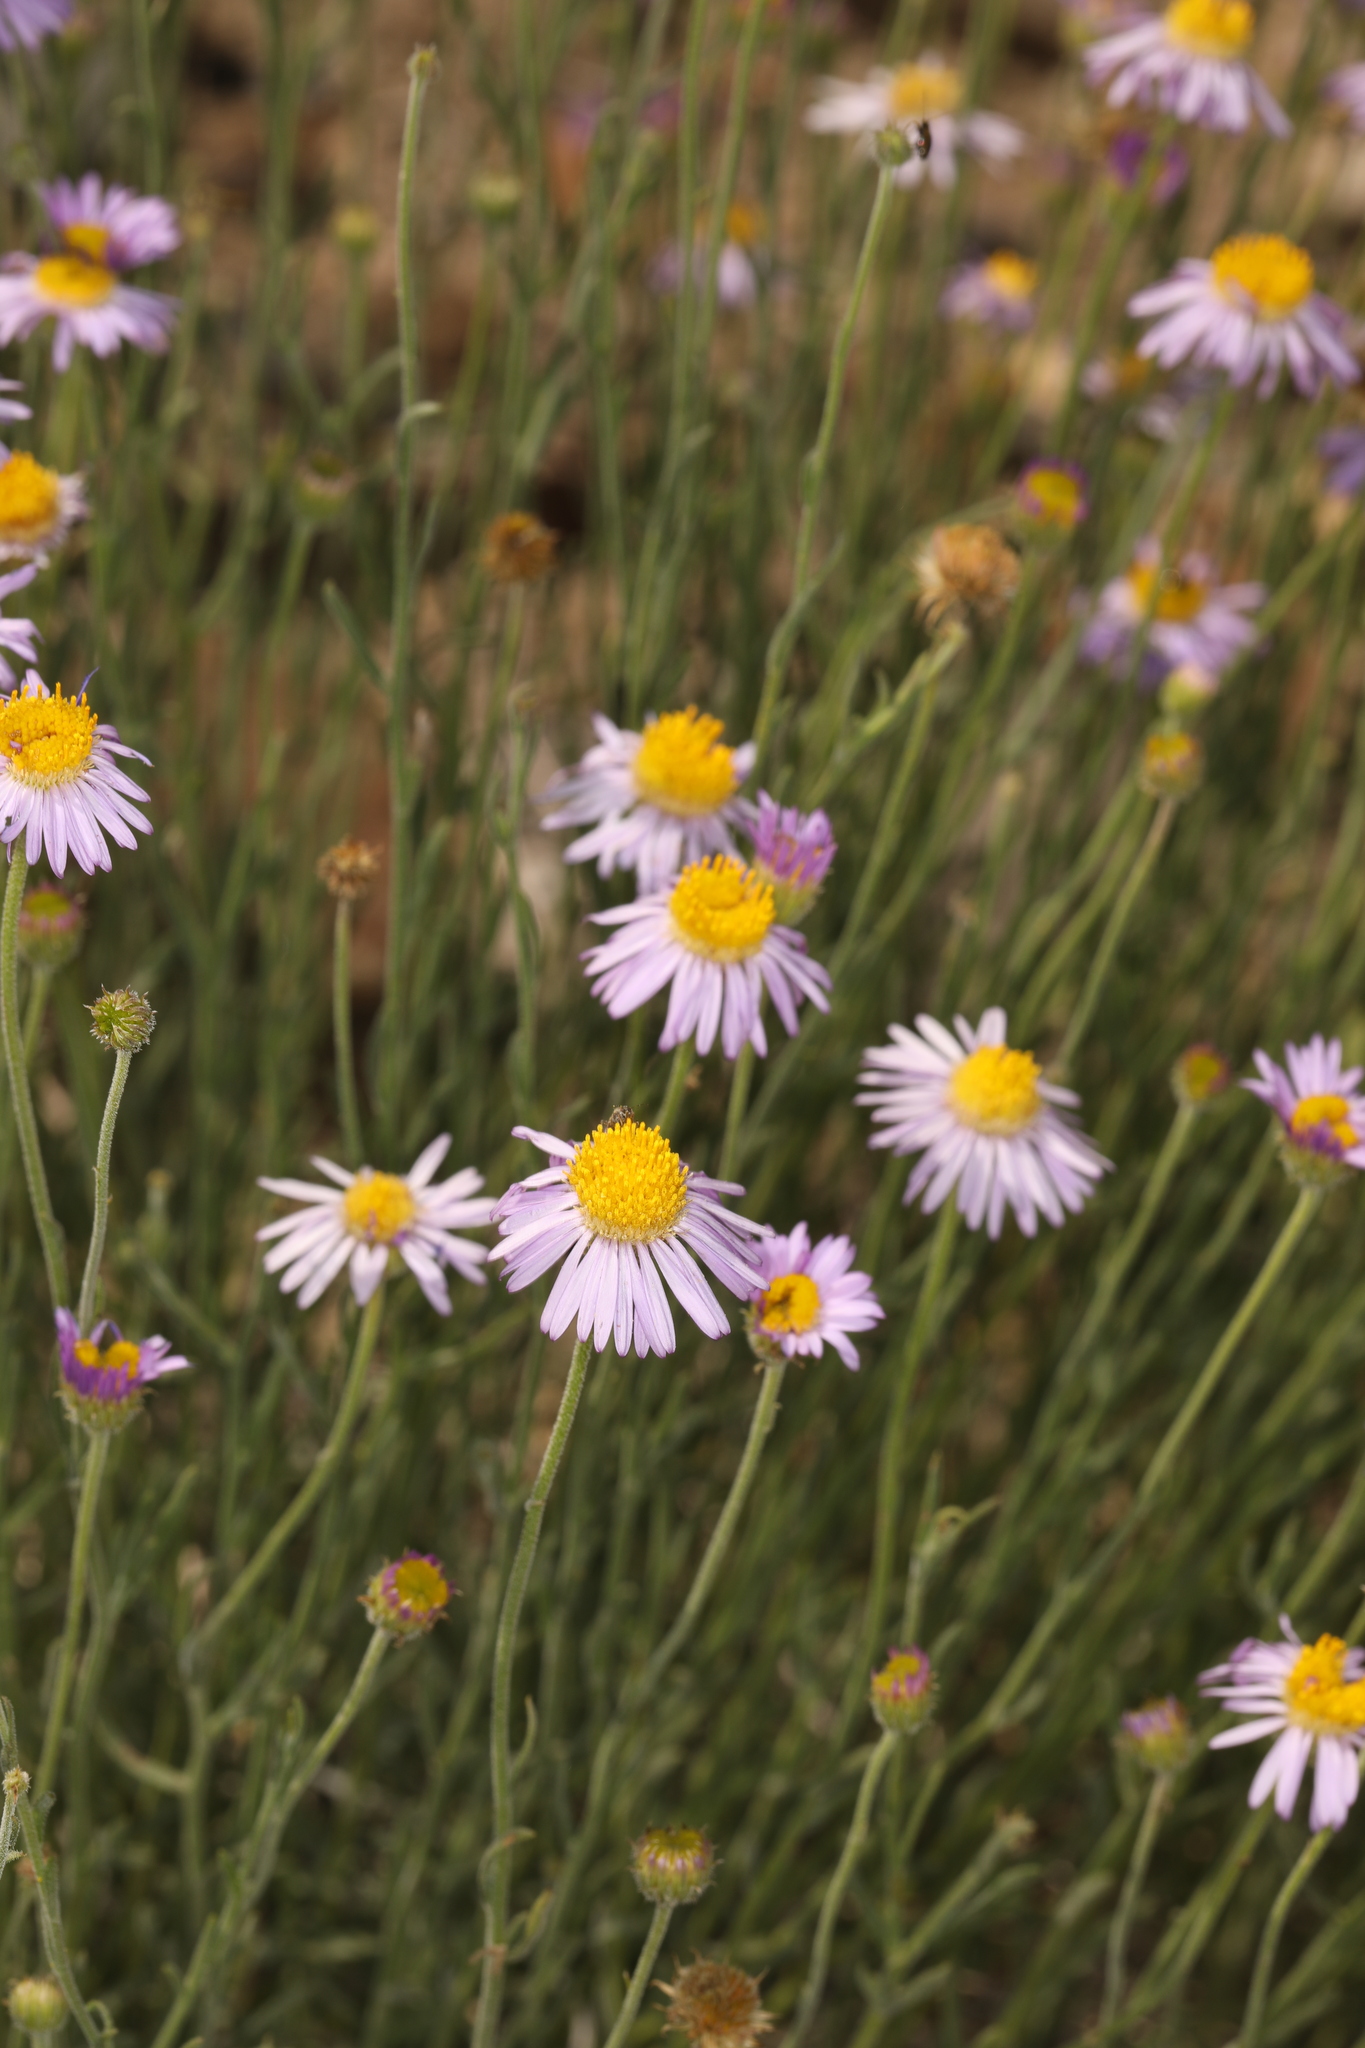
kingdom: Plantae
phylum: Tracheophyta
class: Magnoliopsida
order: Asterales
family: Asteraceae
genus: Erigeron
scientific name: Erigeron breweri
